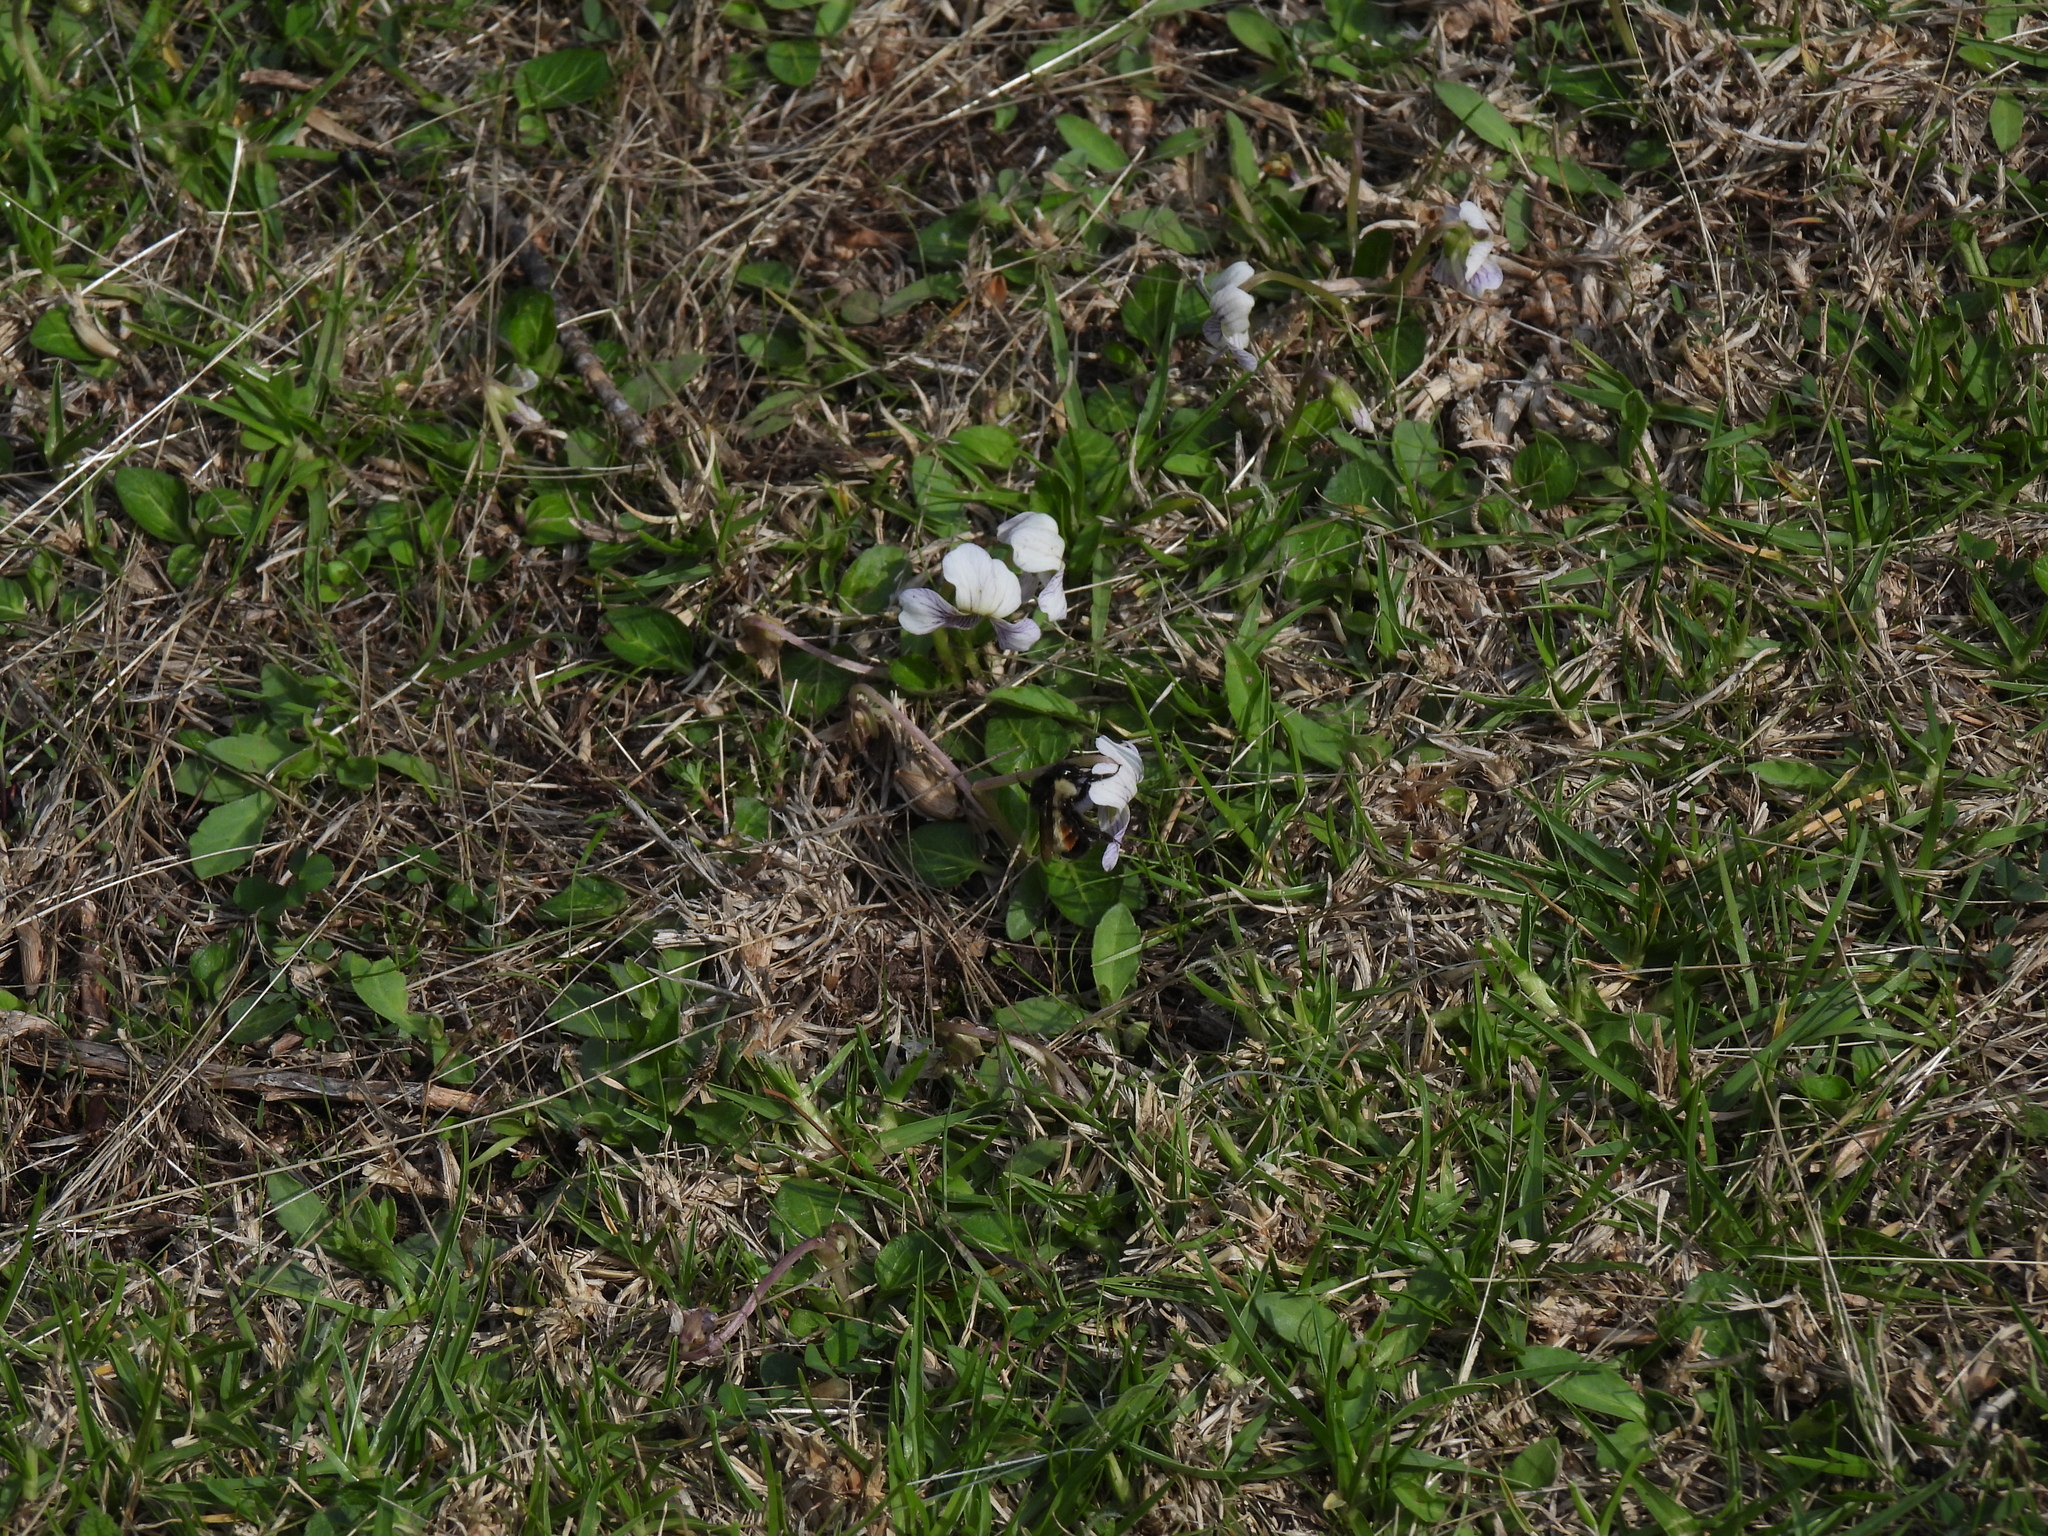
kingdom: Animalia
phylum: Arthropoda
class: Insecta
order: Hymenoptera
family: Apidae
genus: Bombus
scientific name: Bombus ephippiatus
